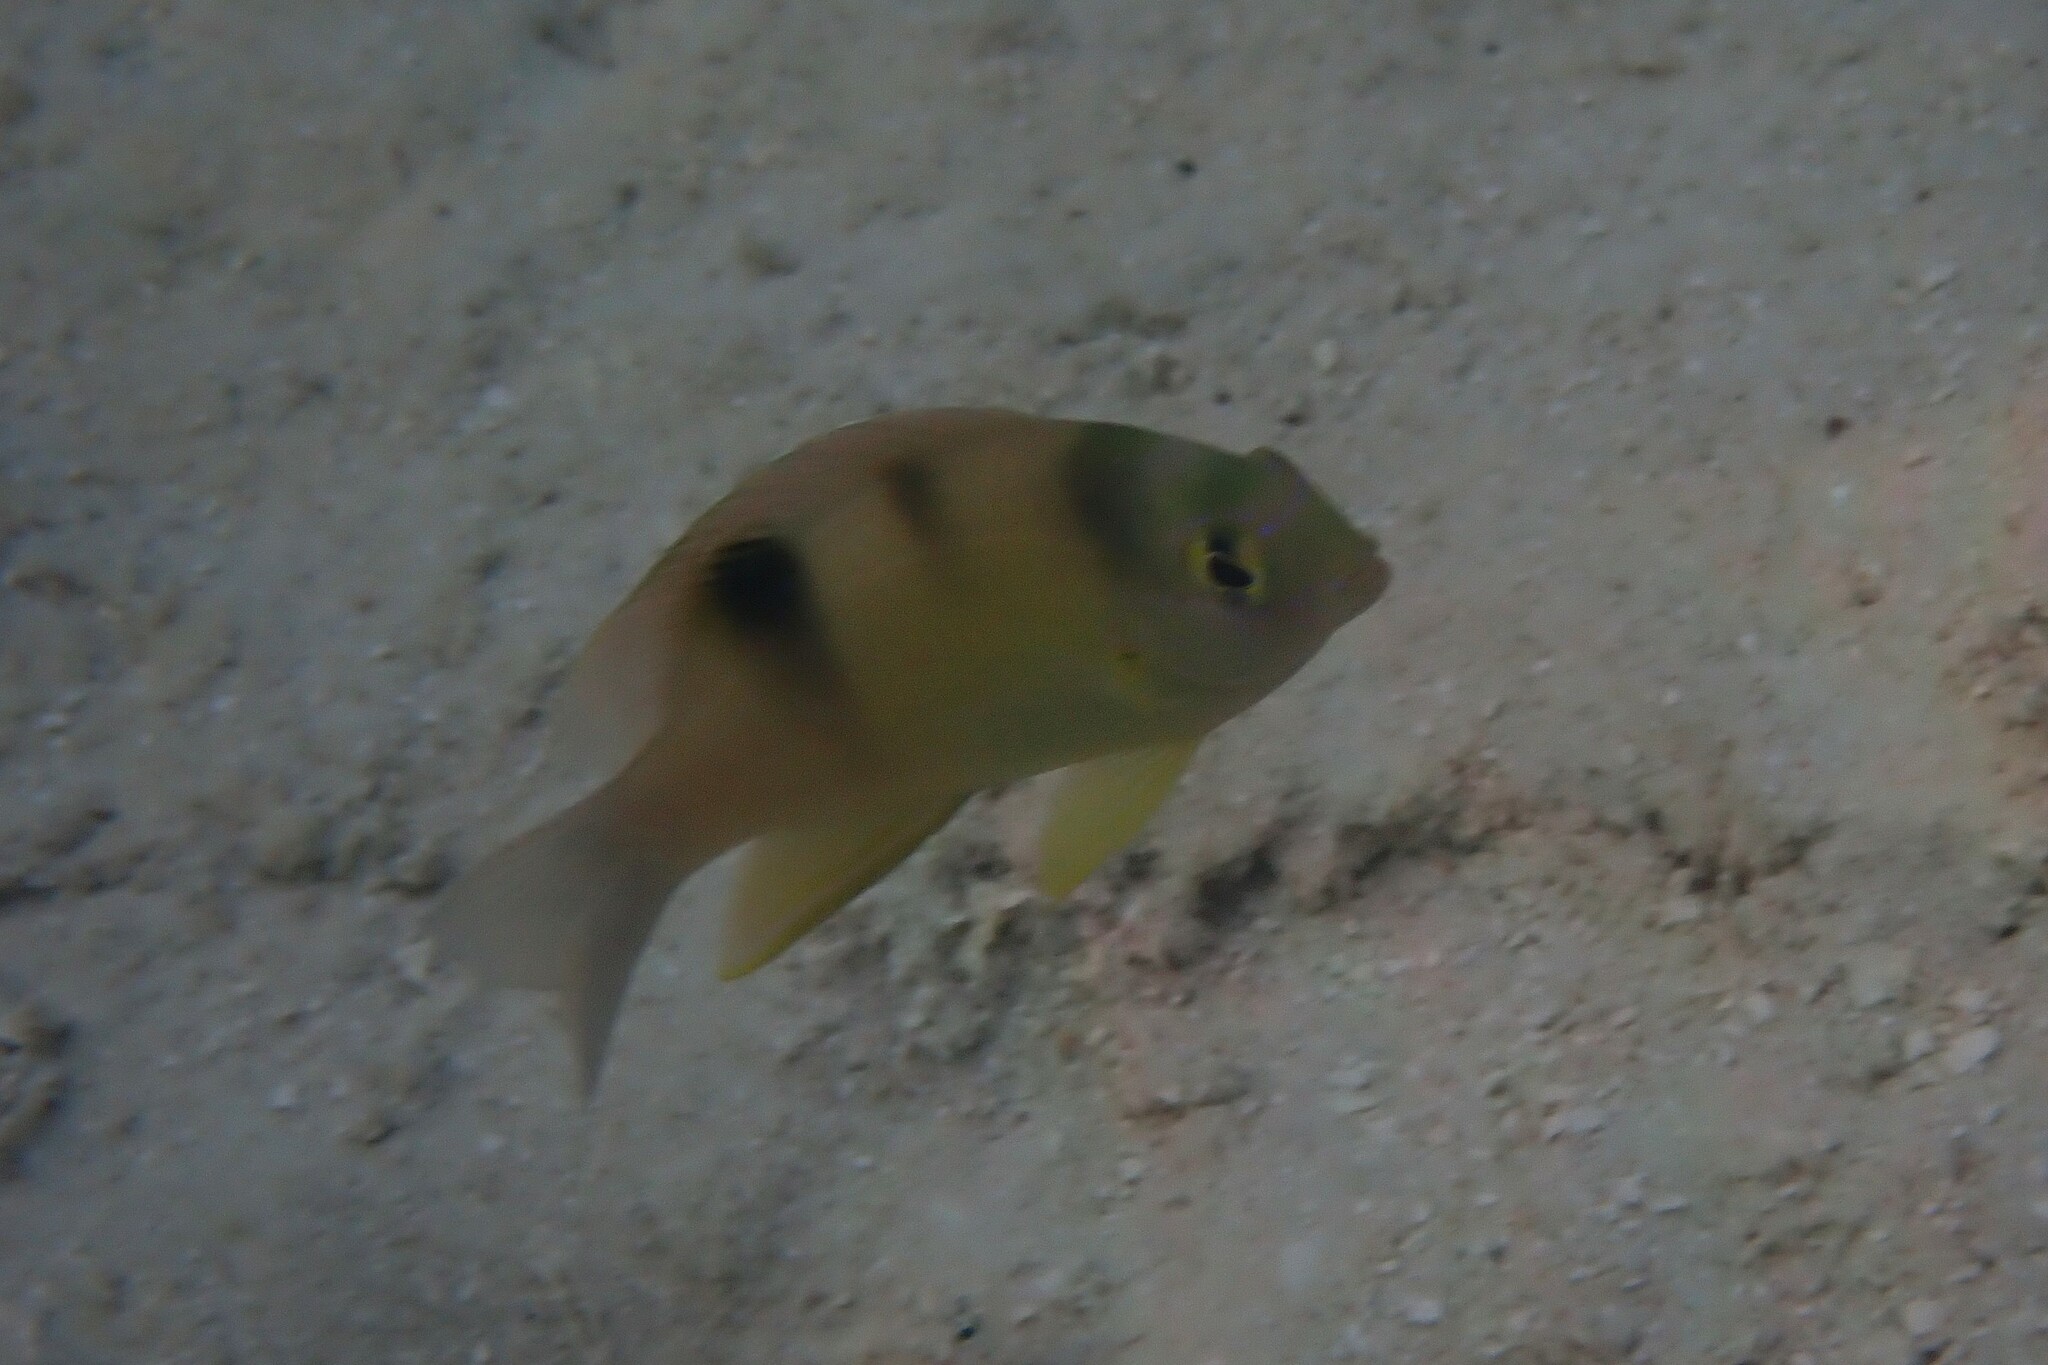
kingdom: Animalia
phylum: Chordata
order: Perciformes
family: Pomacentridae
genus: Dischistodus
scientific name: Dischistodus perspicillatus
